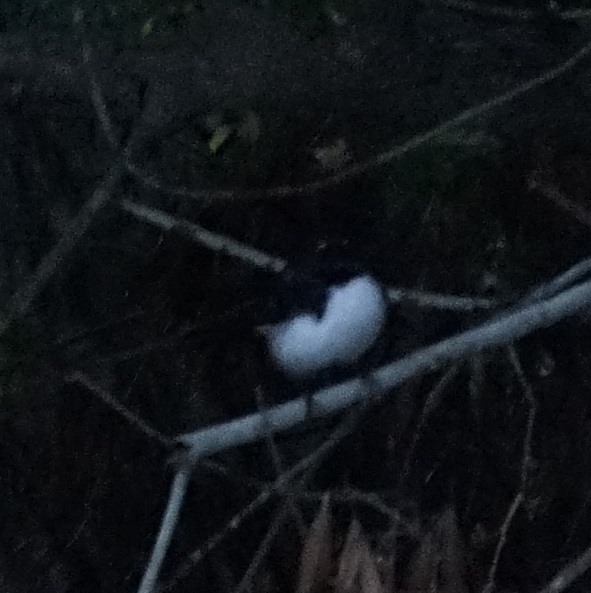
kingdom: Animalia
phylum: Chordata
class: Aves
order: Passeriformes
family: Rhipiduridae
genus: Rhipidura
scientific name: Rhipidura leucophrys
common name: Willie wagtail
